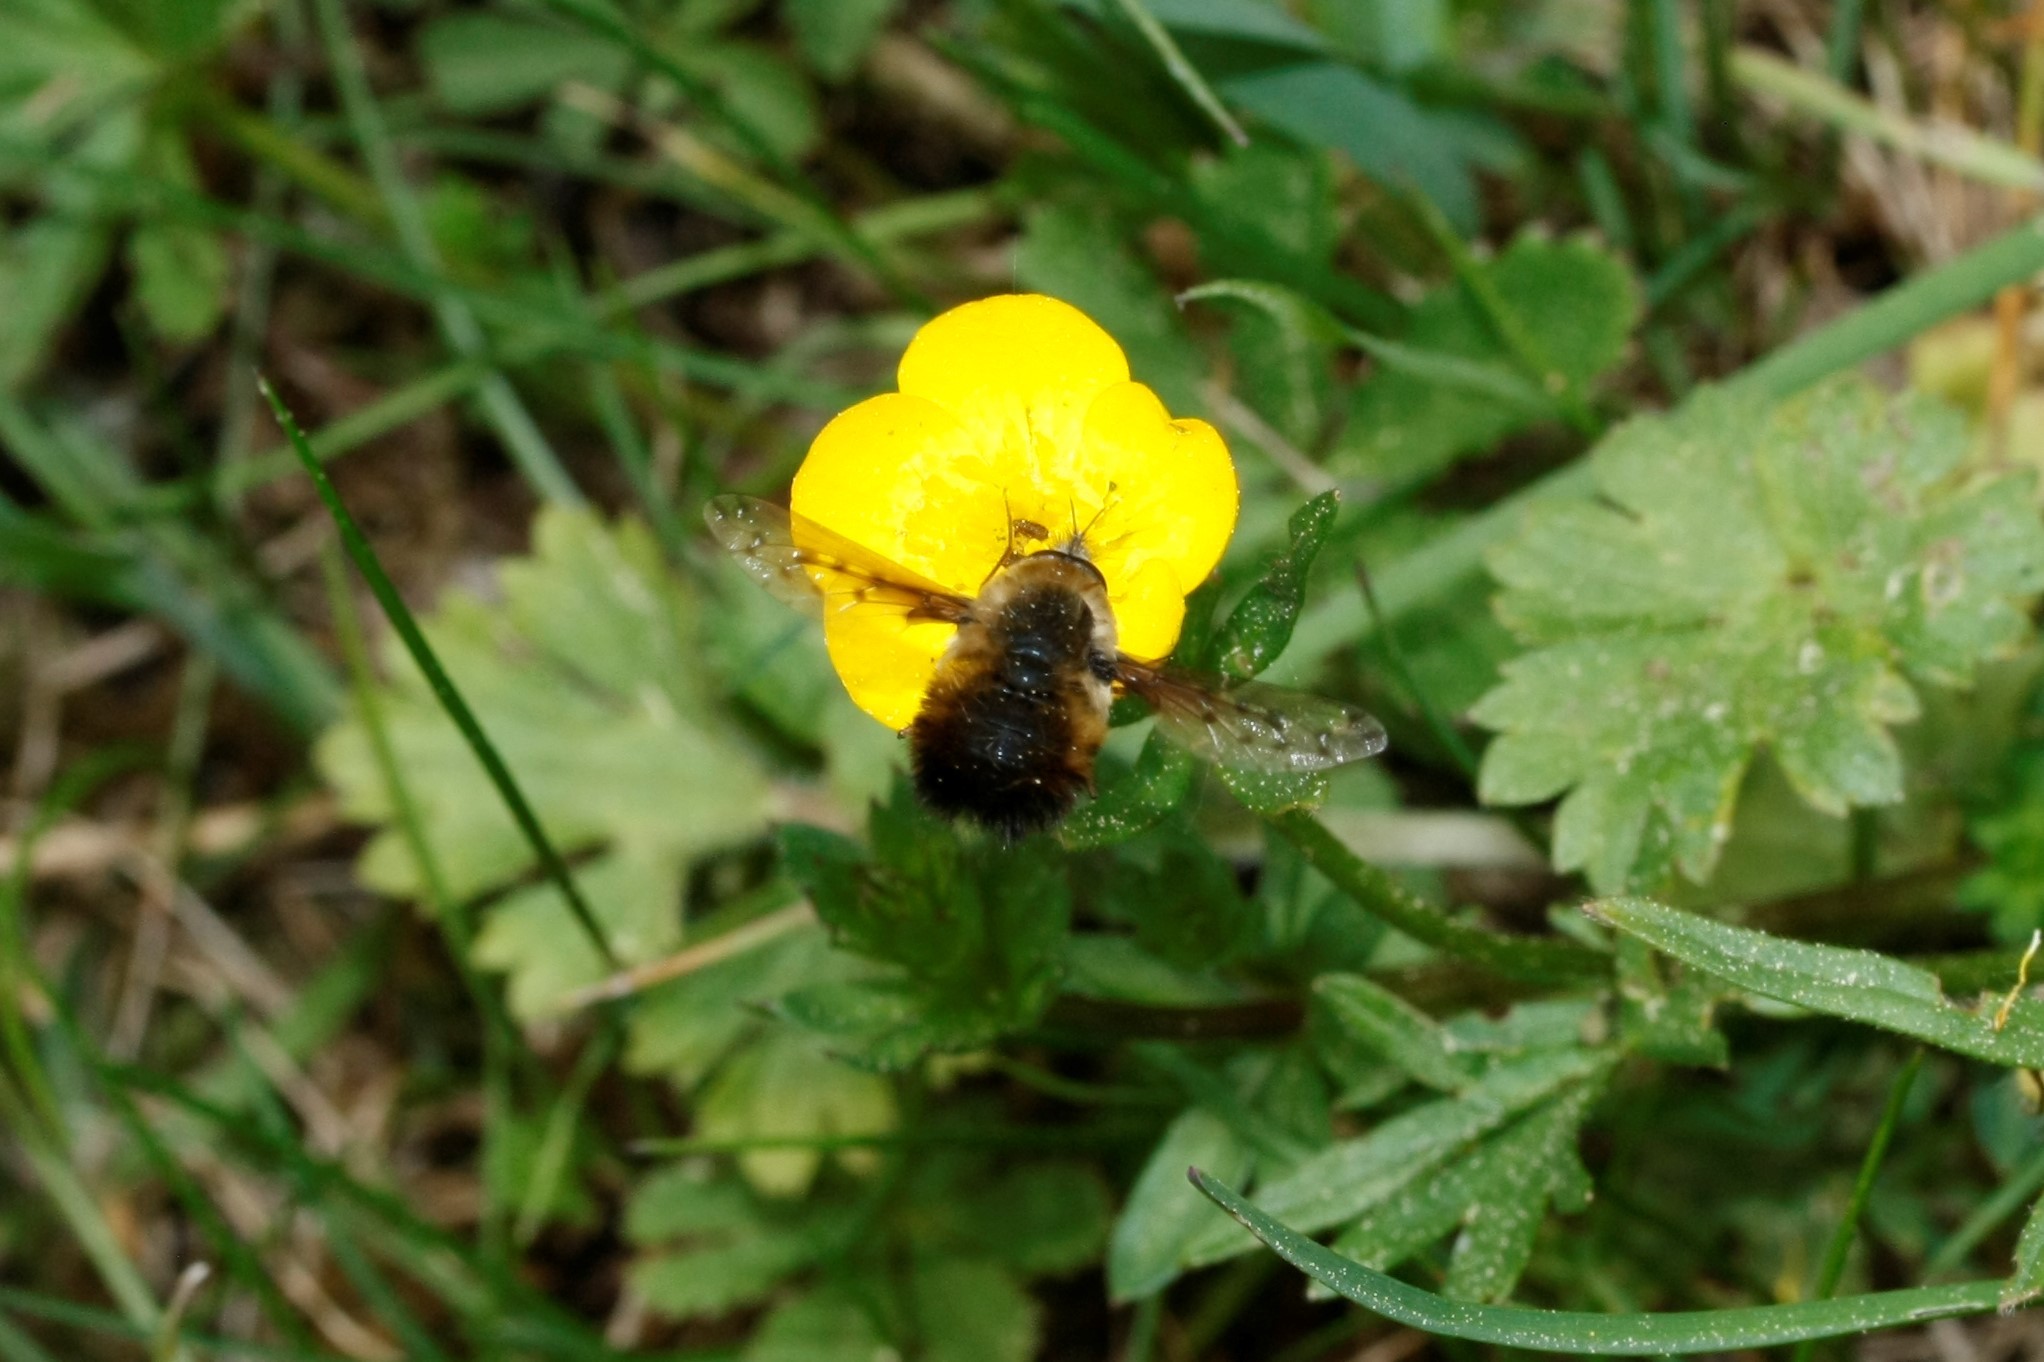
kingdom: Animalia
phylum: Arthropoda
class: Insecta
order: Diptera
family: Bombyliidae
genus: Bombylius
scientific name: Bombylius discolor
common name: Dotted bee-fly
